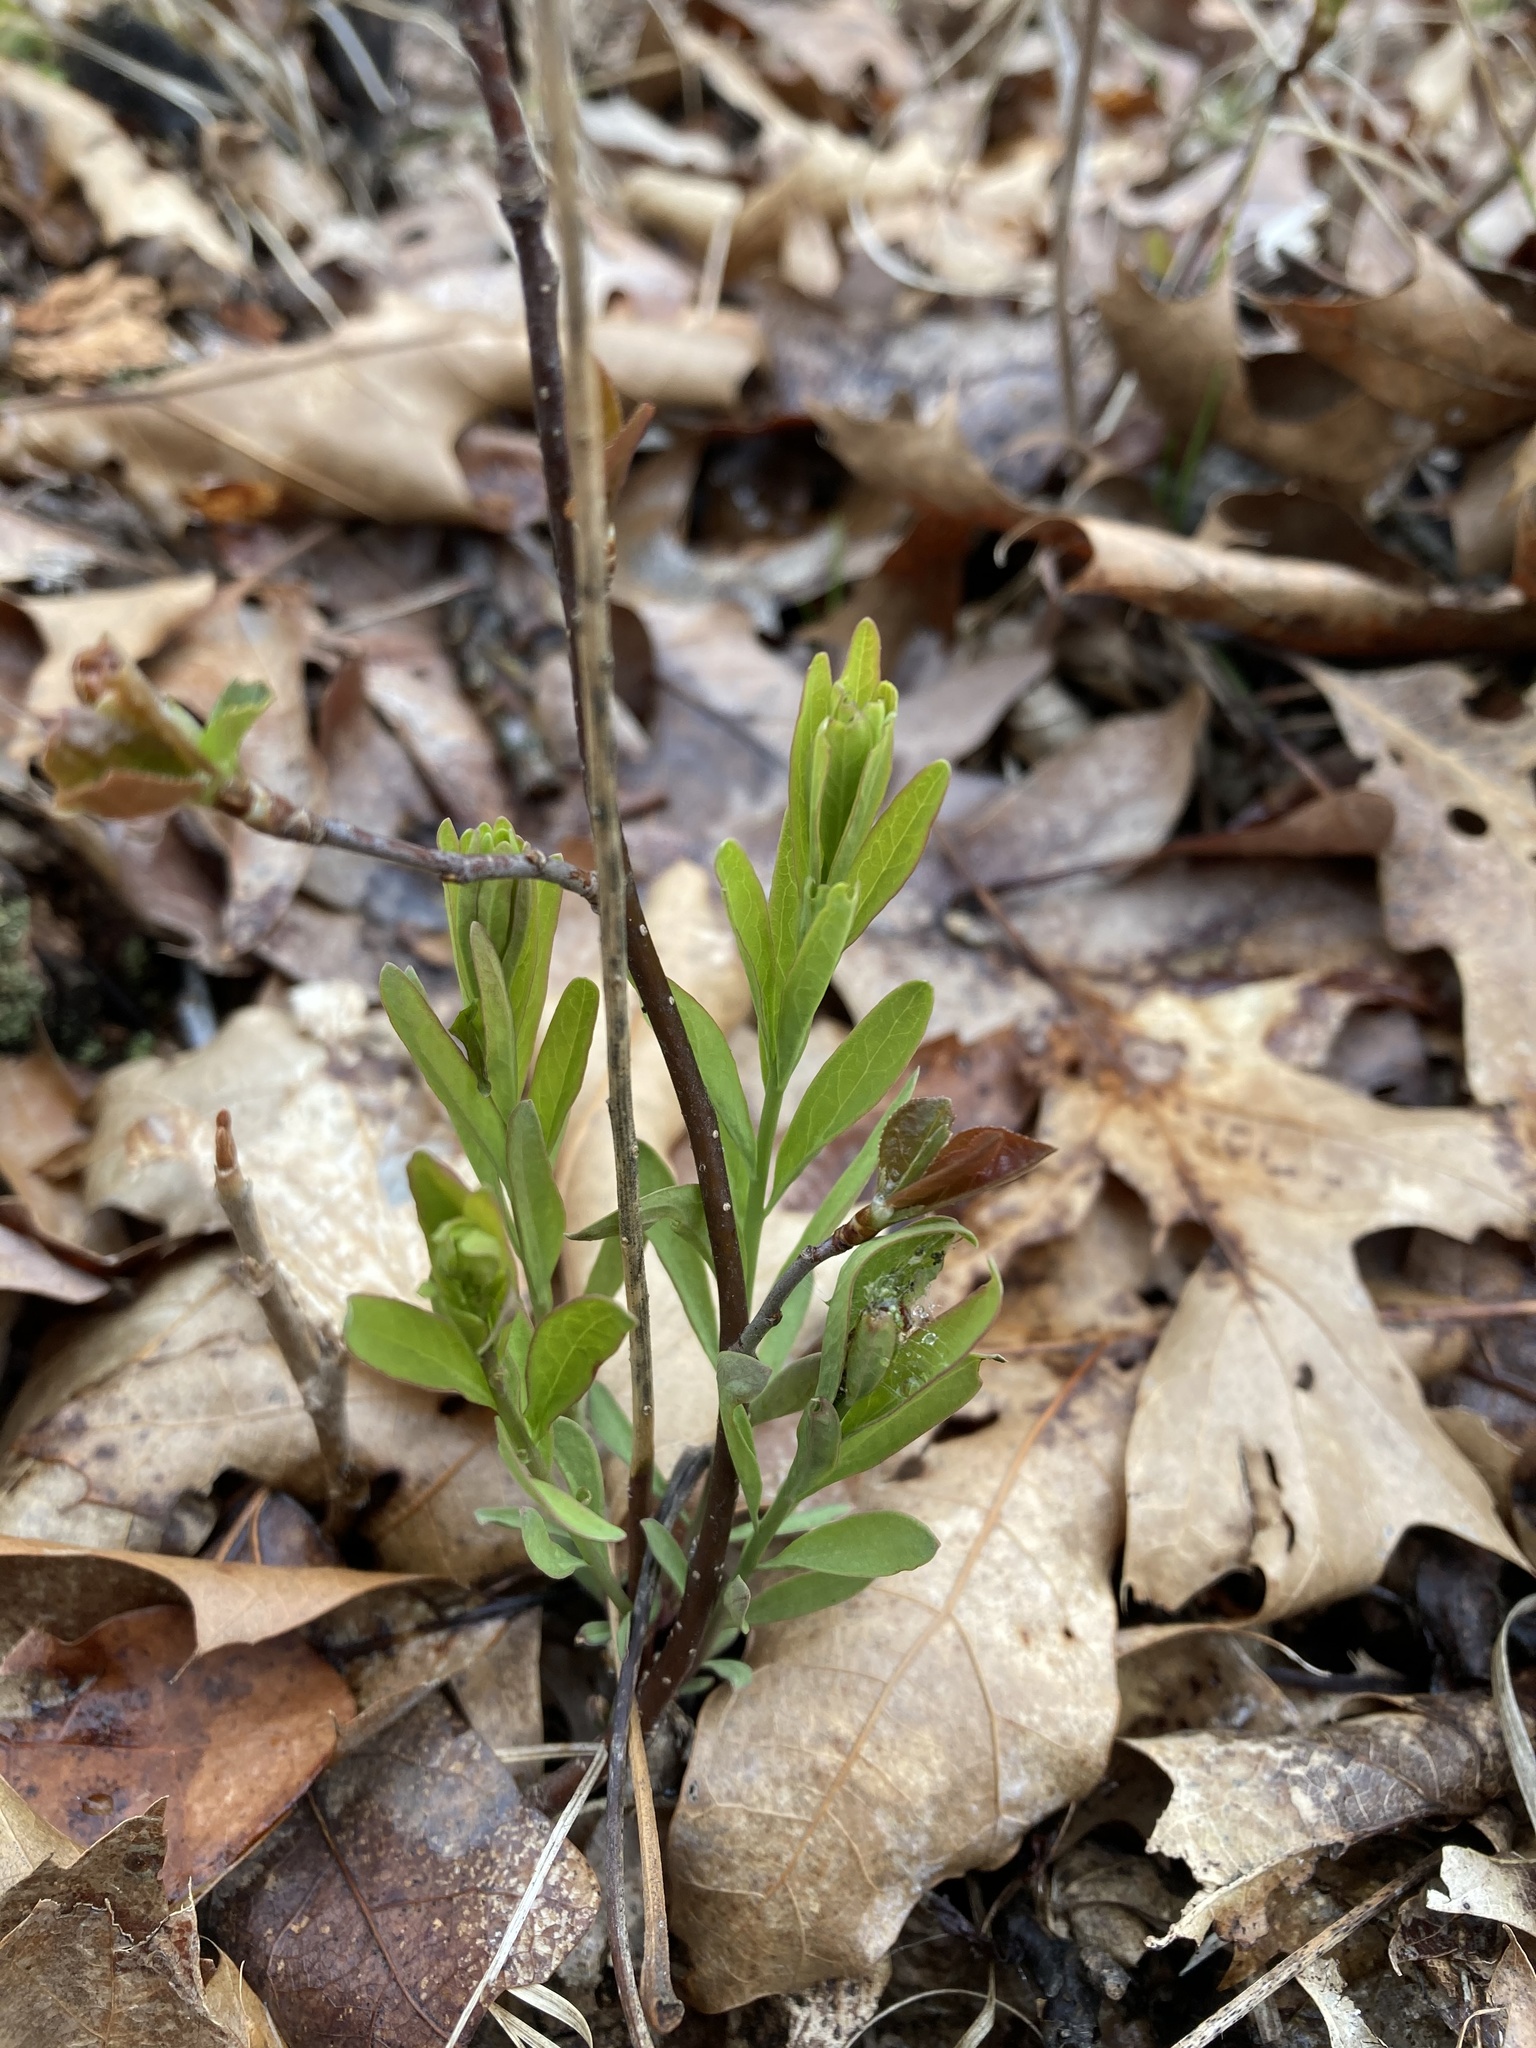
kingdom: Plantae
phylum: Tracheophyta
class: Magnoliopsida
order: Santalales
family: Comandraceae
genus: Comandra
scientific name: Comandra umbellata
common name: Bastard toadflax
